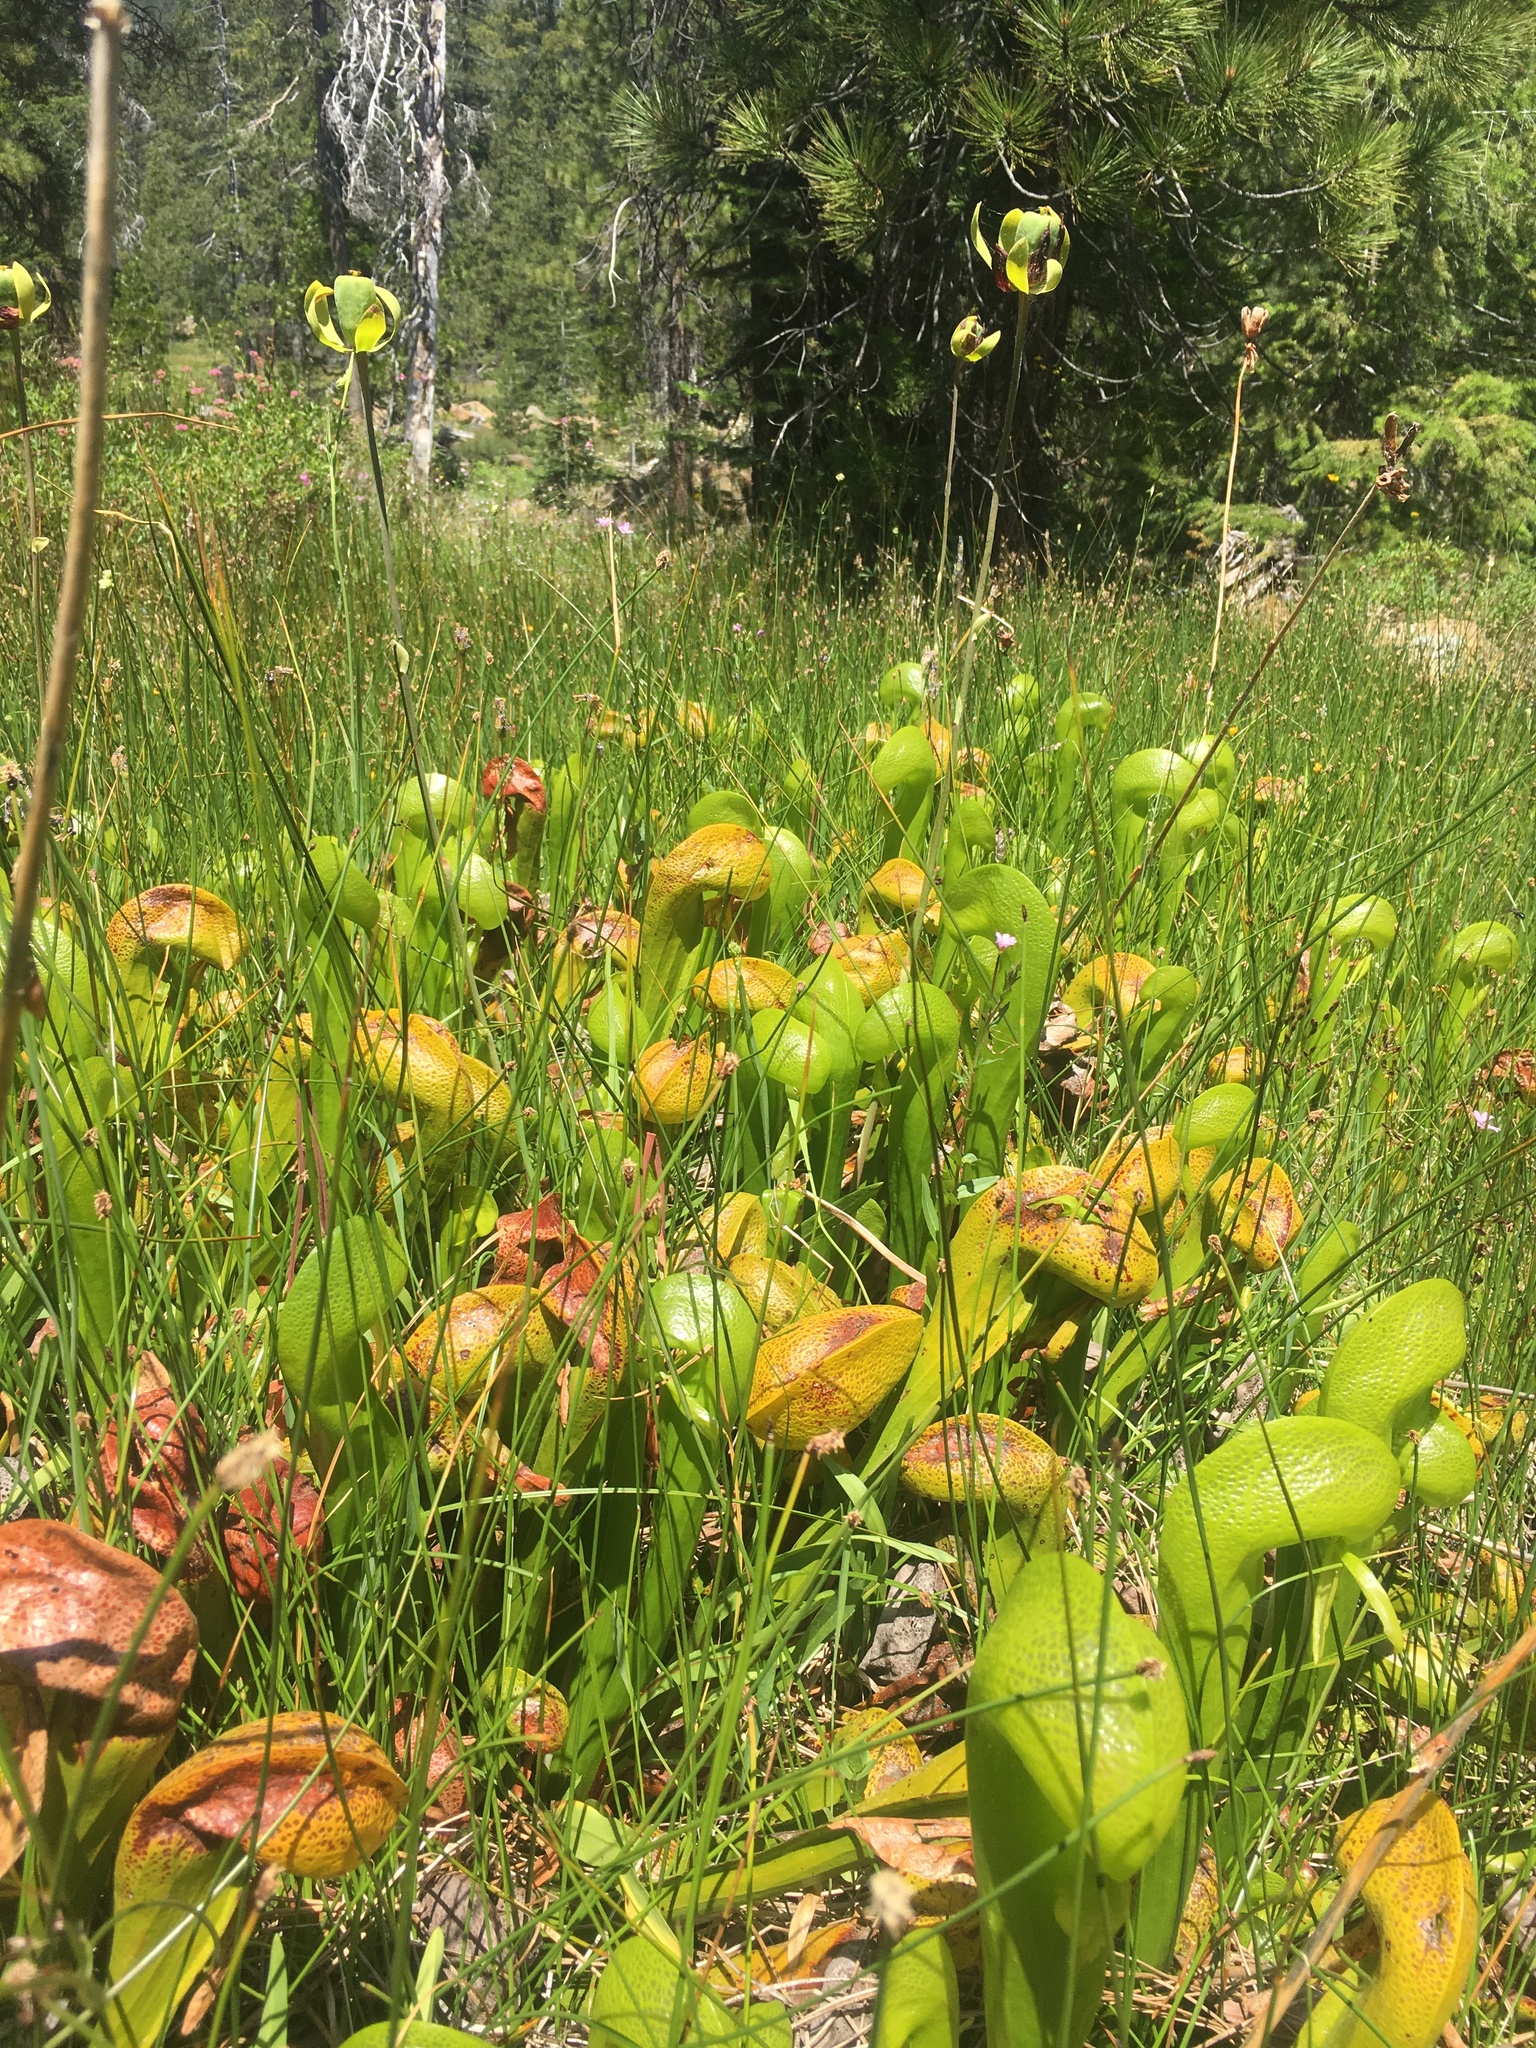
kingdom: Plantae
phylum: Tracheophyta
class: Magnoliopsida
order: Ericales
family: Sarraceniaceae
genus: Darlingtonia
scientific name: Darlingtonia californica
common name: California pitcher plant
